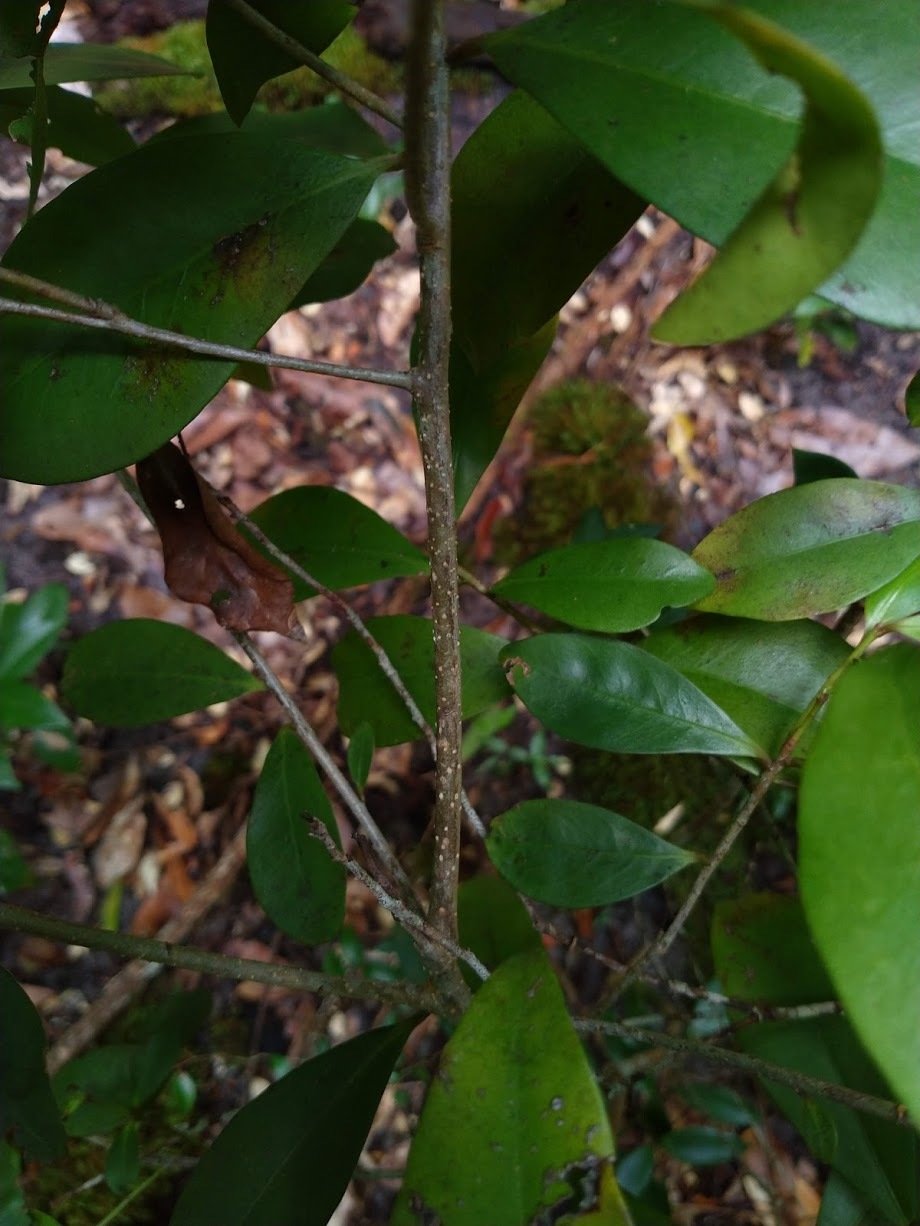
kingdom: Plantae
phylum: Tracheophyta
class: Magnoliopsida
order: Ericales
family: Primulaceae
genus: Myrsine
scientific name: Myrsine arenaria
